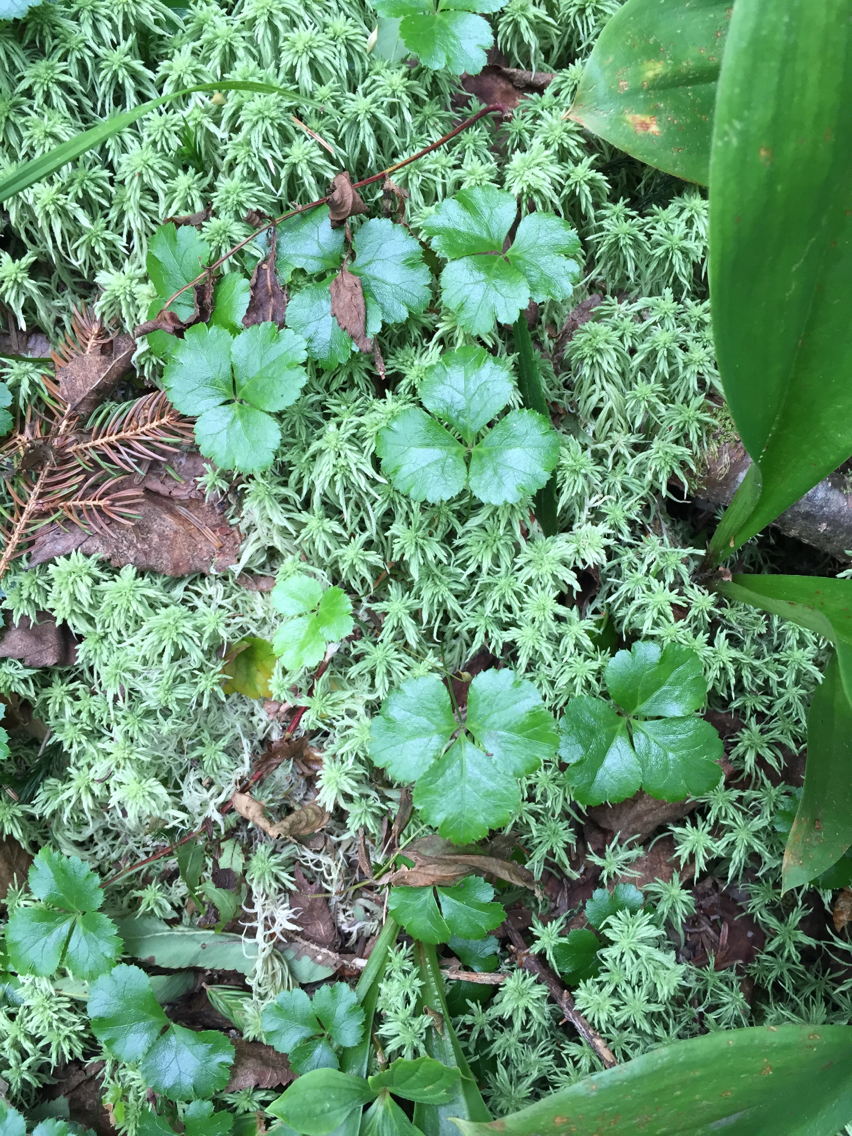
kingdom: Plantae
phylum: Bryophyta
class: Sphagnopsida
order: Sphagnales
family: Sphagnaceae
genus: Sphagnum
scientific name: Sphagnum
